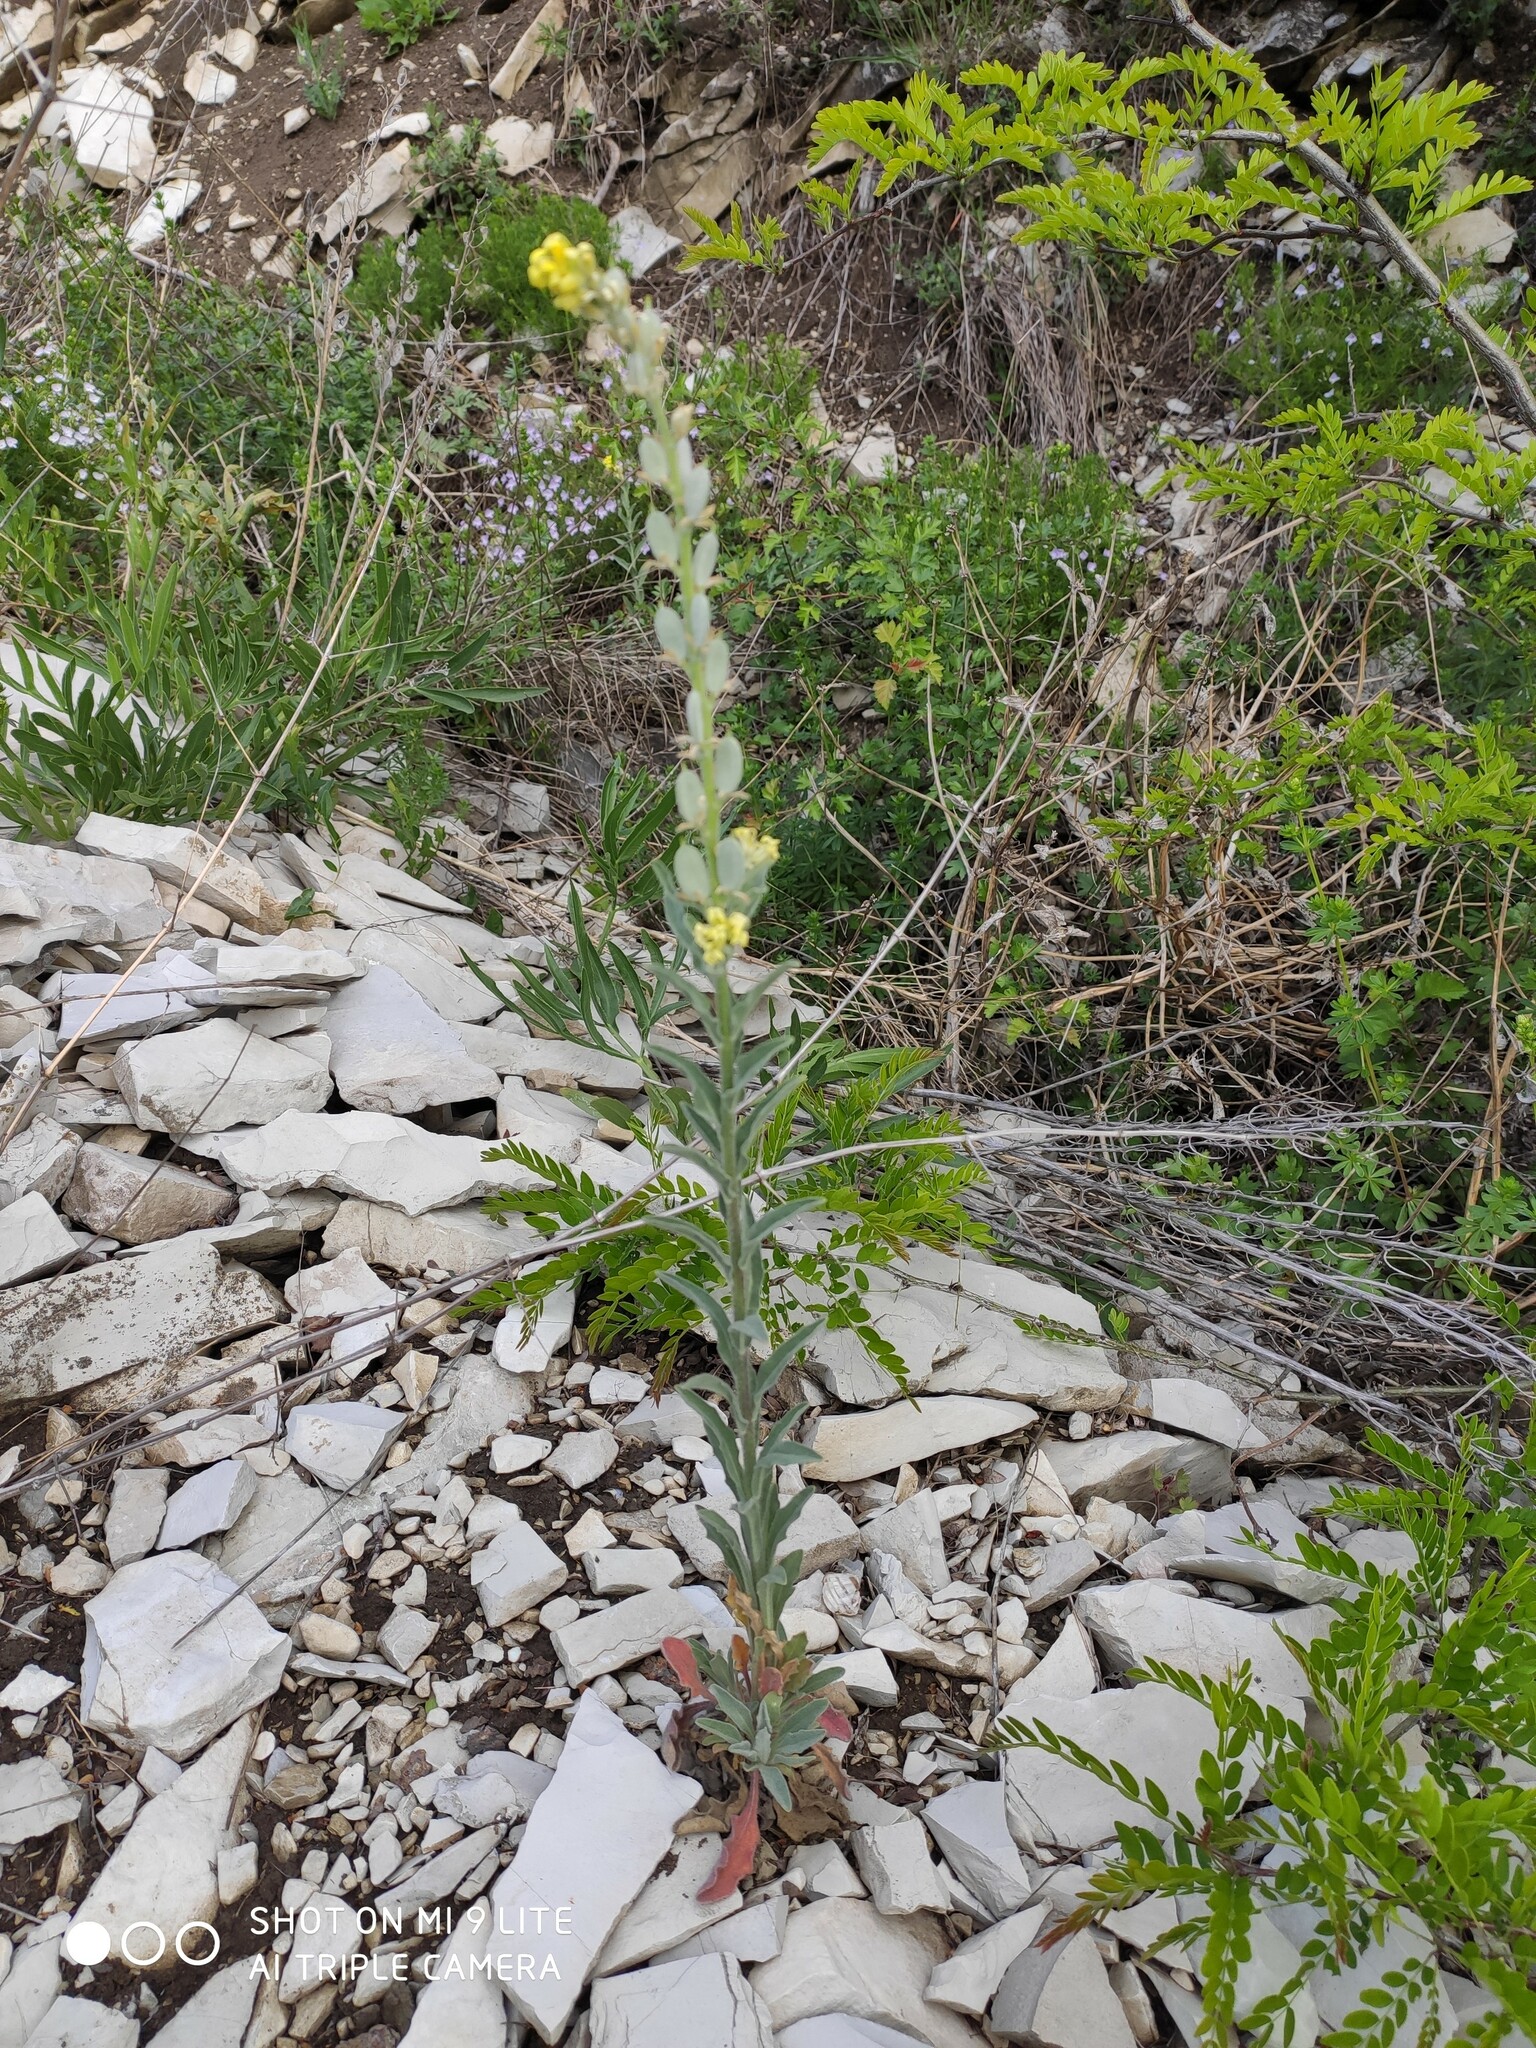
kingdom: Plantae
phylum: Tracheophyta
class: Magnoliopsida
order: Brassicales
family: Brassicaceae
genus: Fibigia
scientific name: Fibigia clypeata
